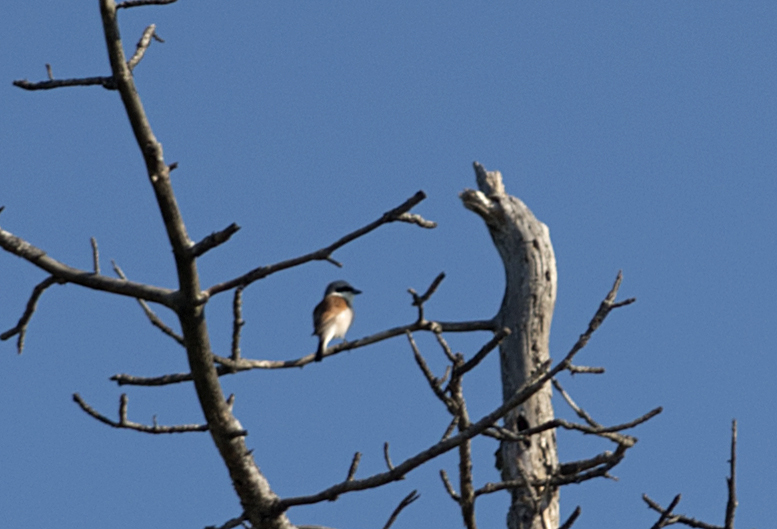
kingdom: Animalia
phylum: Chordata
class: Aves
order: Passeriformes
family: Laniidae
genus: Lanius
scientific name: Lanius collurio
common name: Red-backed shrike
